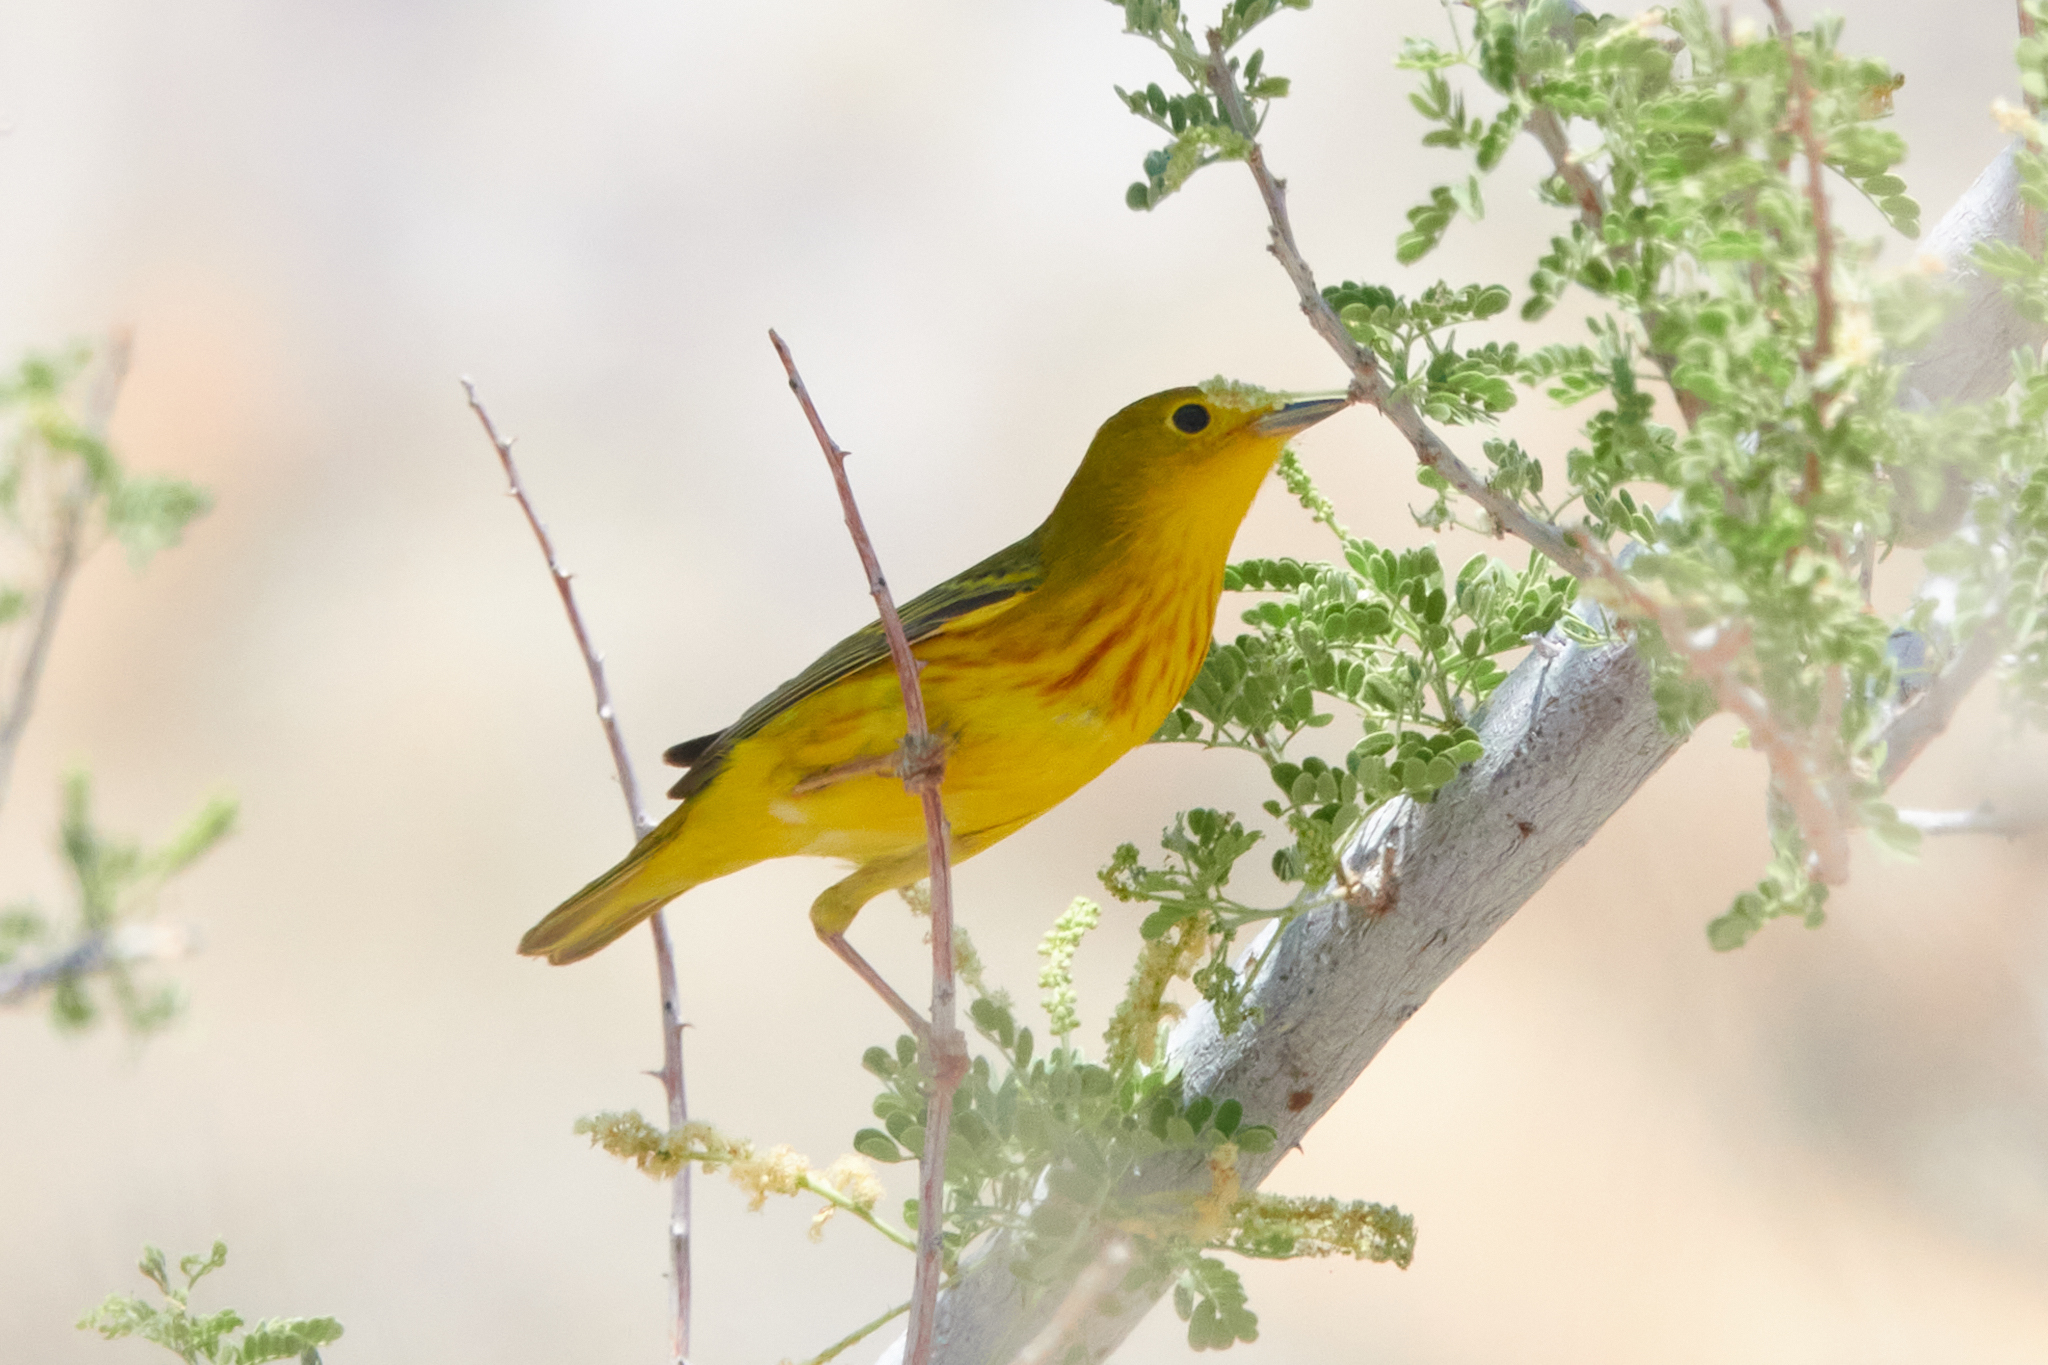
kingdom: Animalia
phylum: Chordata
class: Aves
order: Passeriformes
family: Parulidae
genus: Setophaga
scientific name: Setophaga petechia
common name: Yellow warbler
